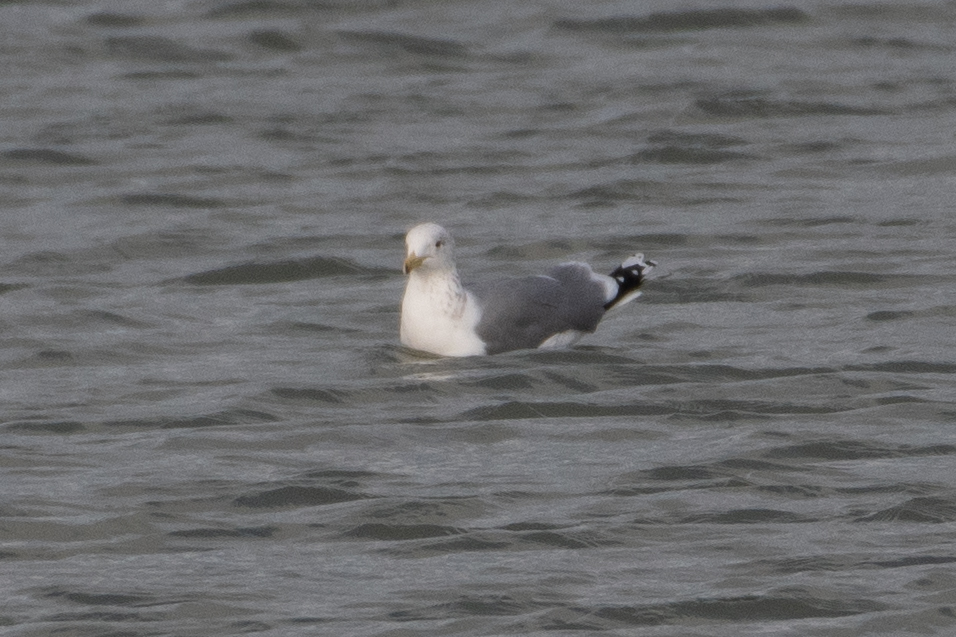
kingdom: Animalia
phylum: Chordata
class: Aves
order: Charadriiformes
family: Laridae
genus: Larus
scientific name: Larus californicus
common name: California gull
